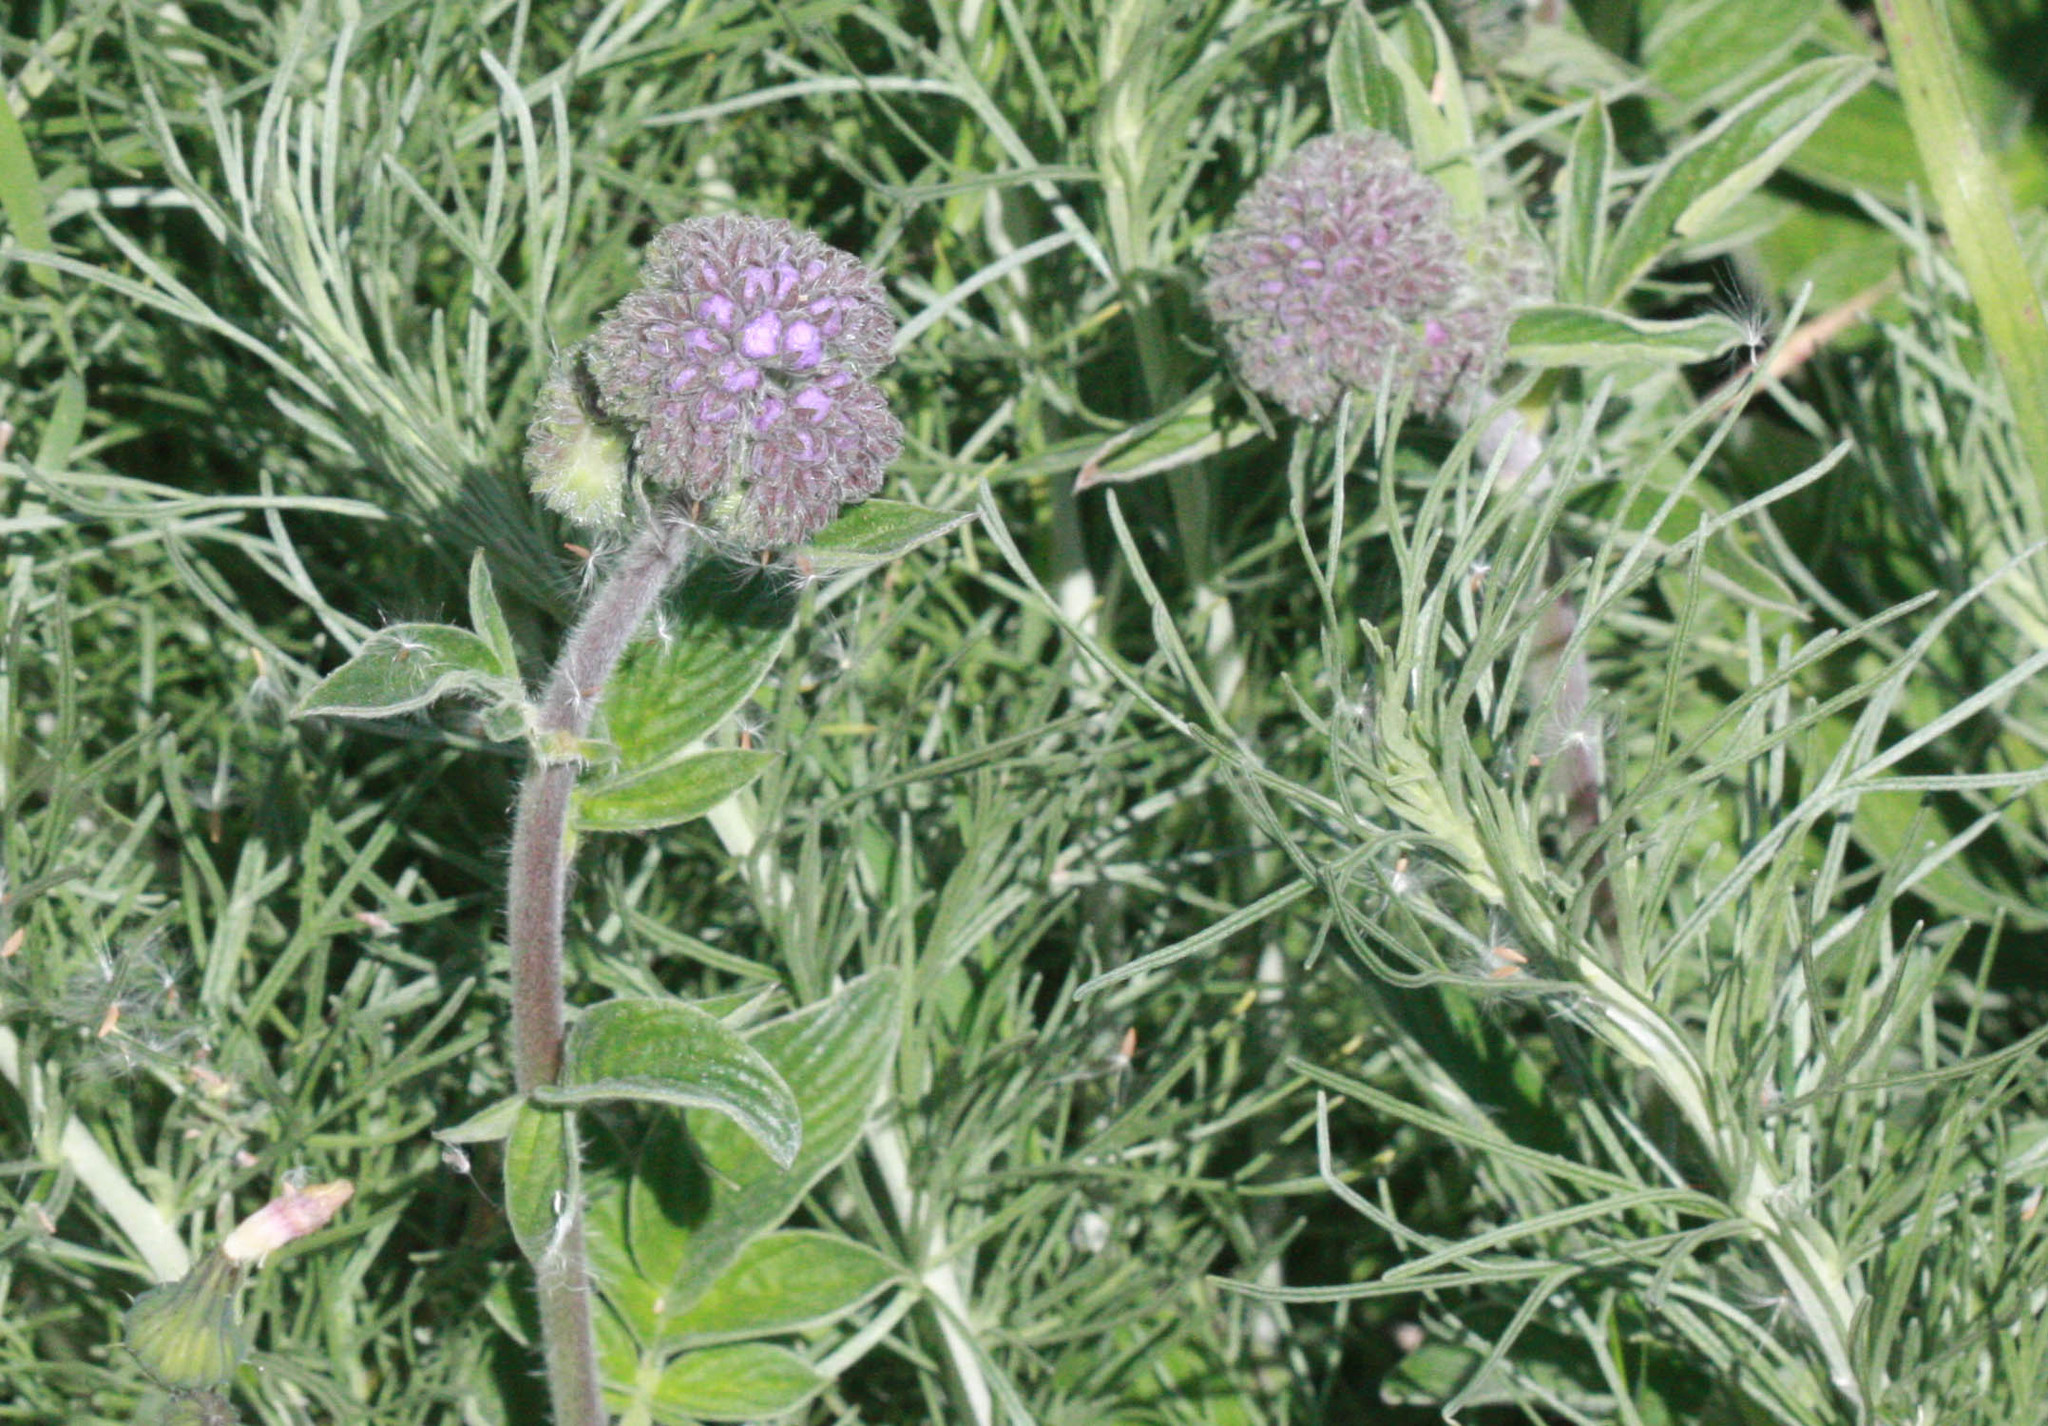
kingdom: Plantae
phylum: Tracheophyta
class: Magnoliopsida
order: Boraginales
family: Hydrophyllaceae
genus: Phacelia
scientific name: Phacelia californica
